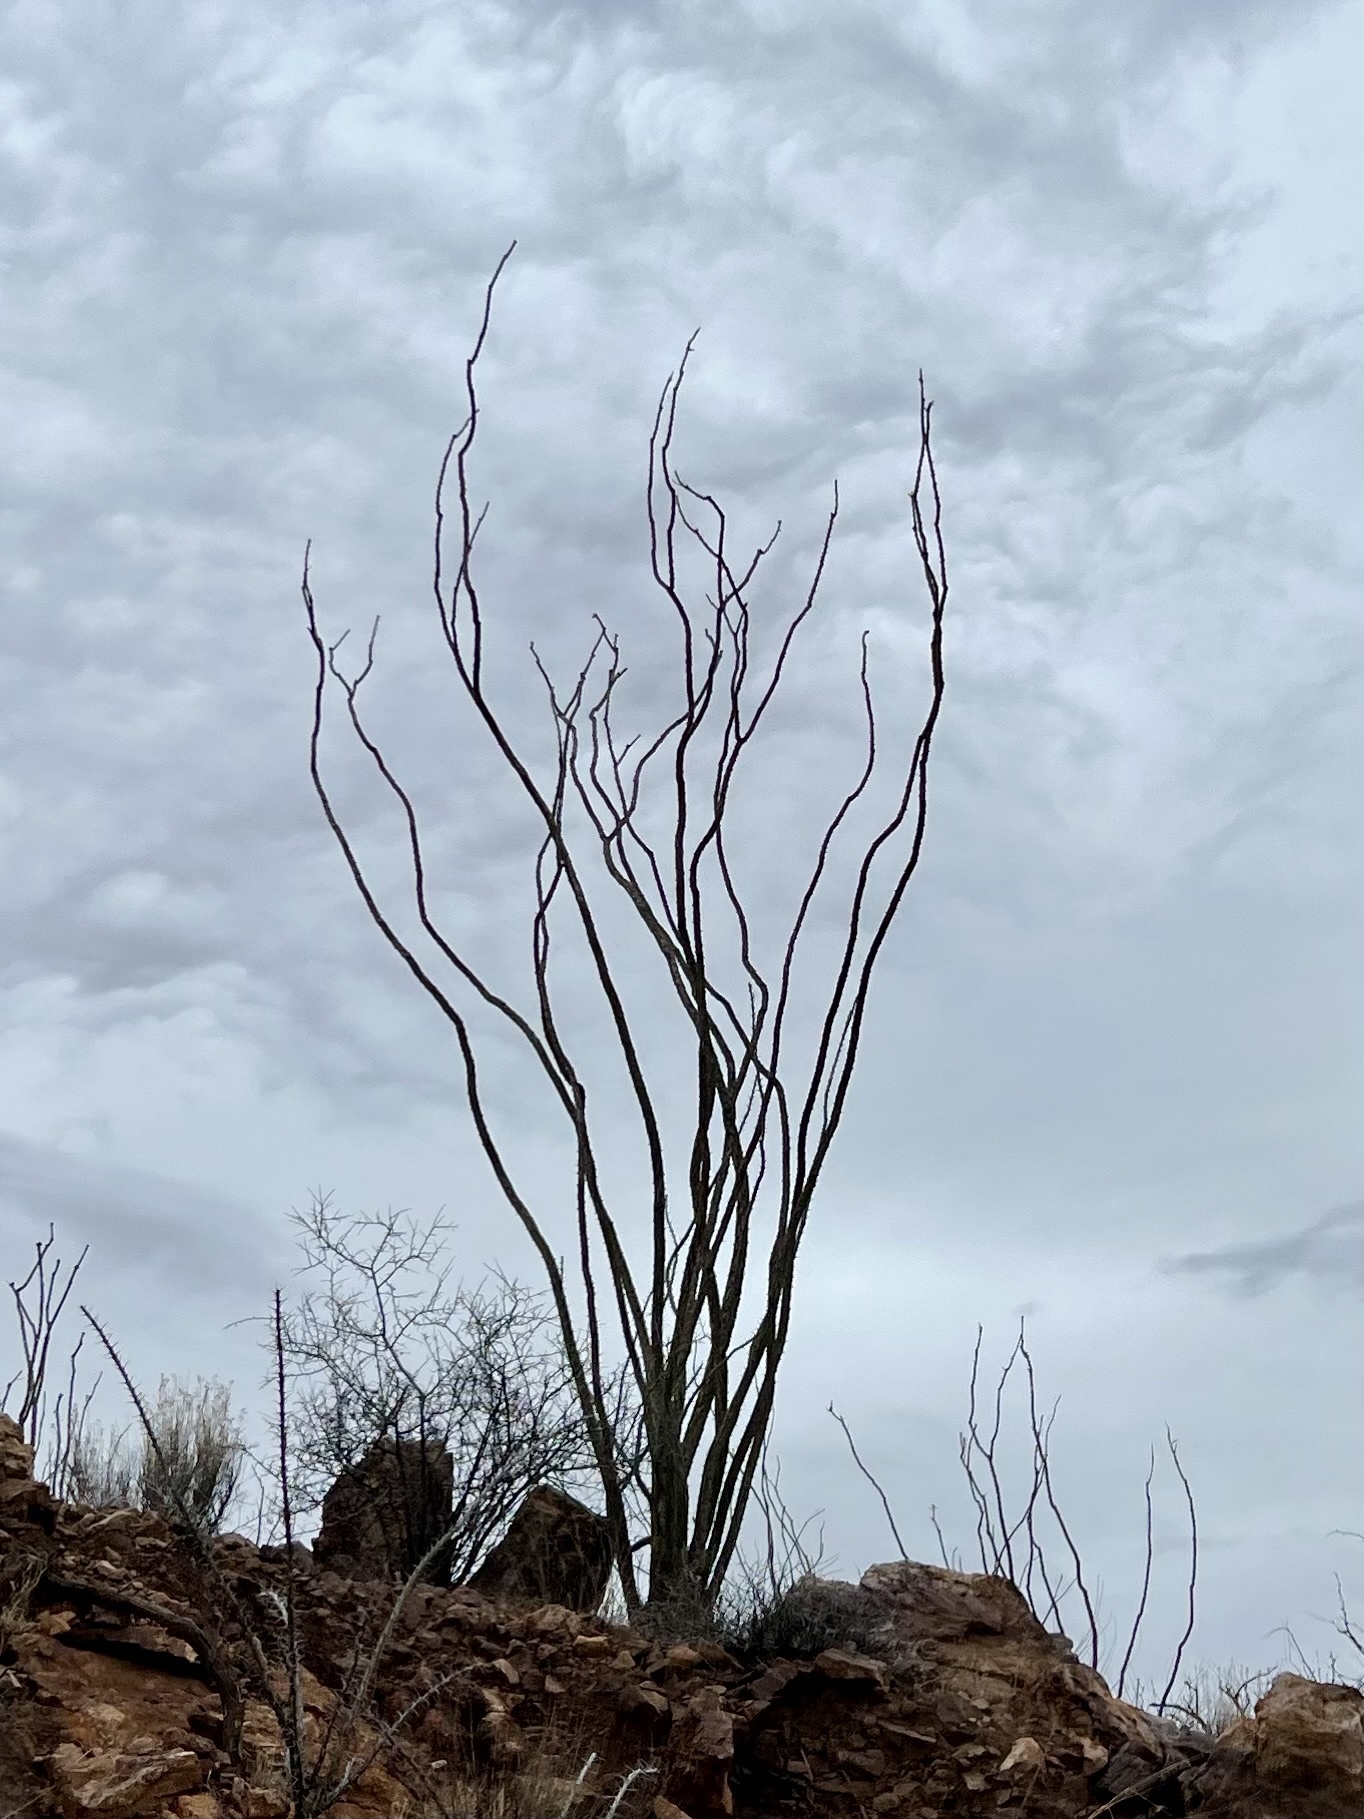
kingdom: Plantae
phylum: Tracheophyta
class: Magnoliopsida
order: Ericales
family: Fouquieriaceae
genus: Fouquieria
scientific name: Fouquieria splendens
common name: Vine-cactus
